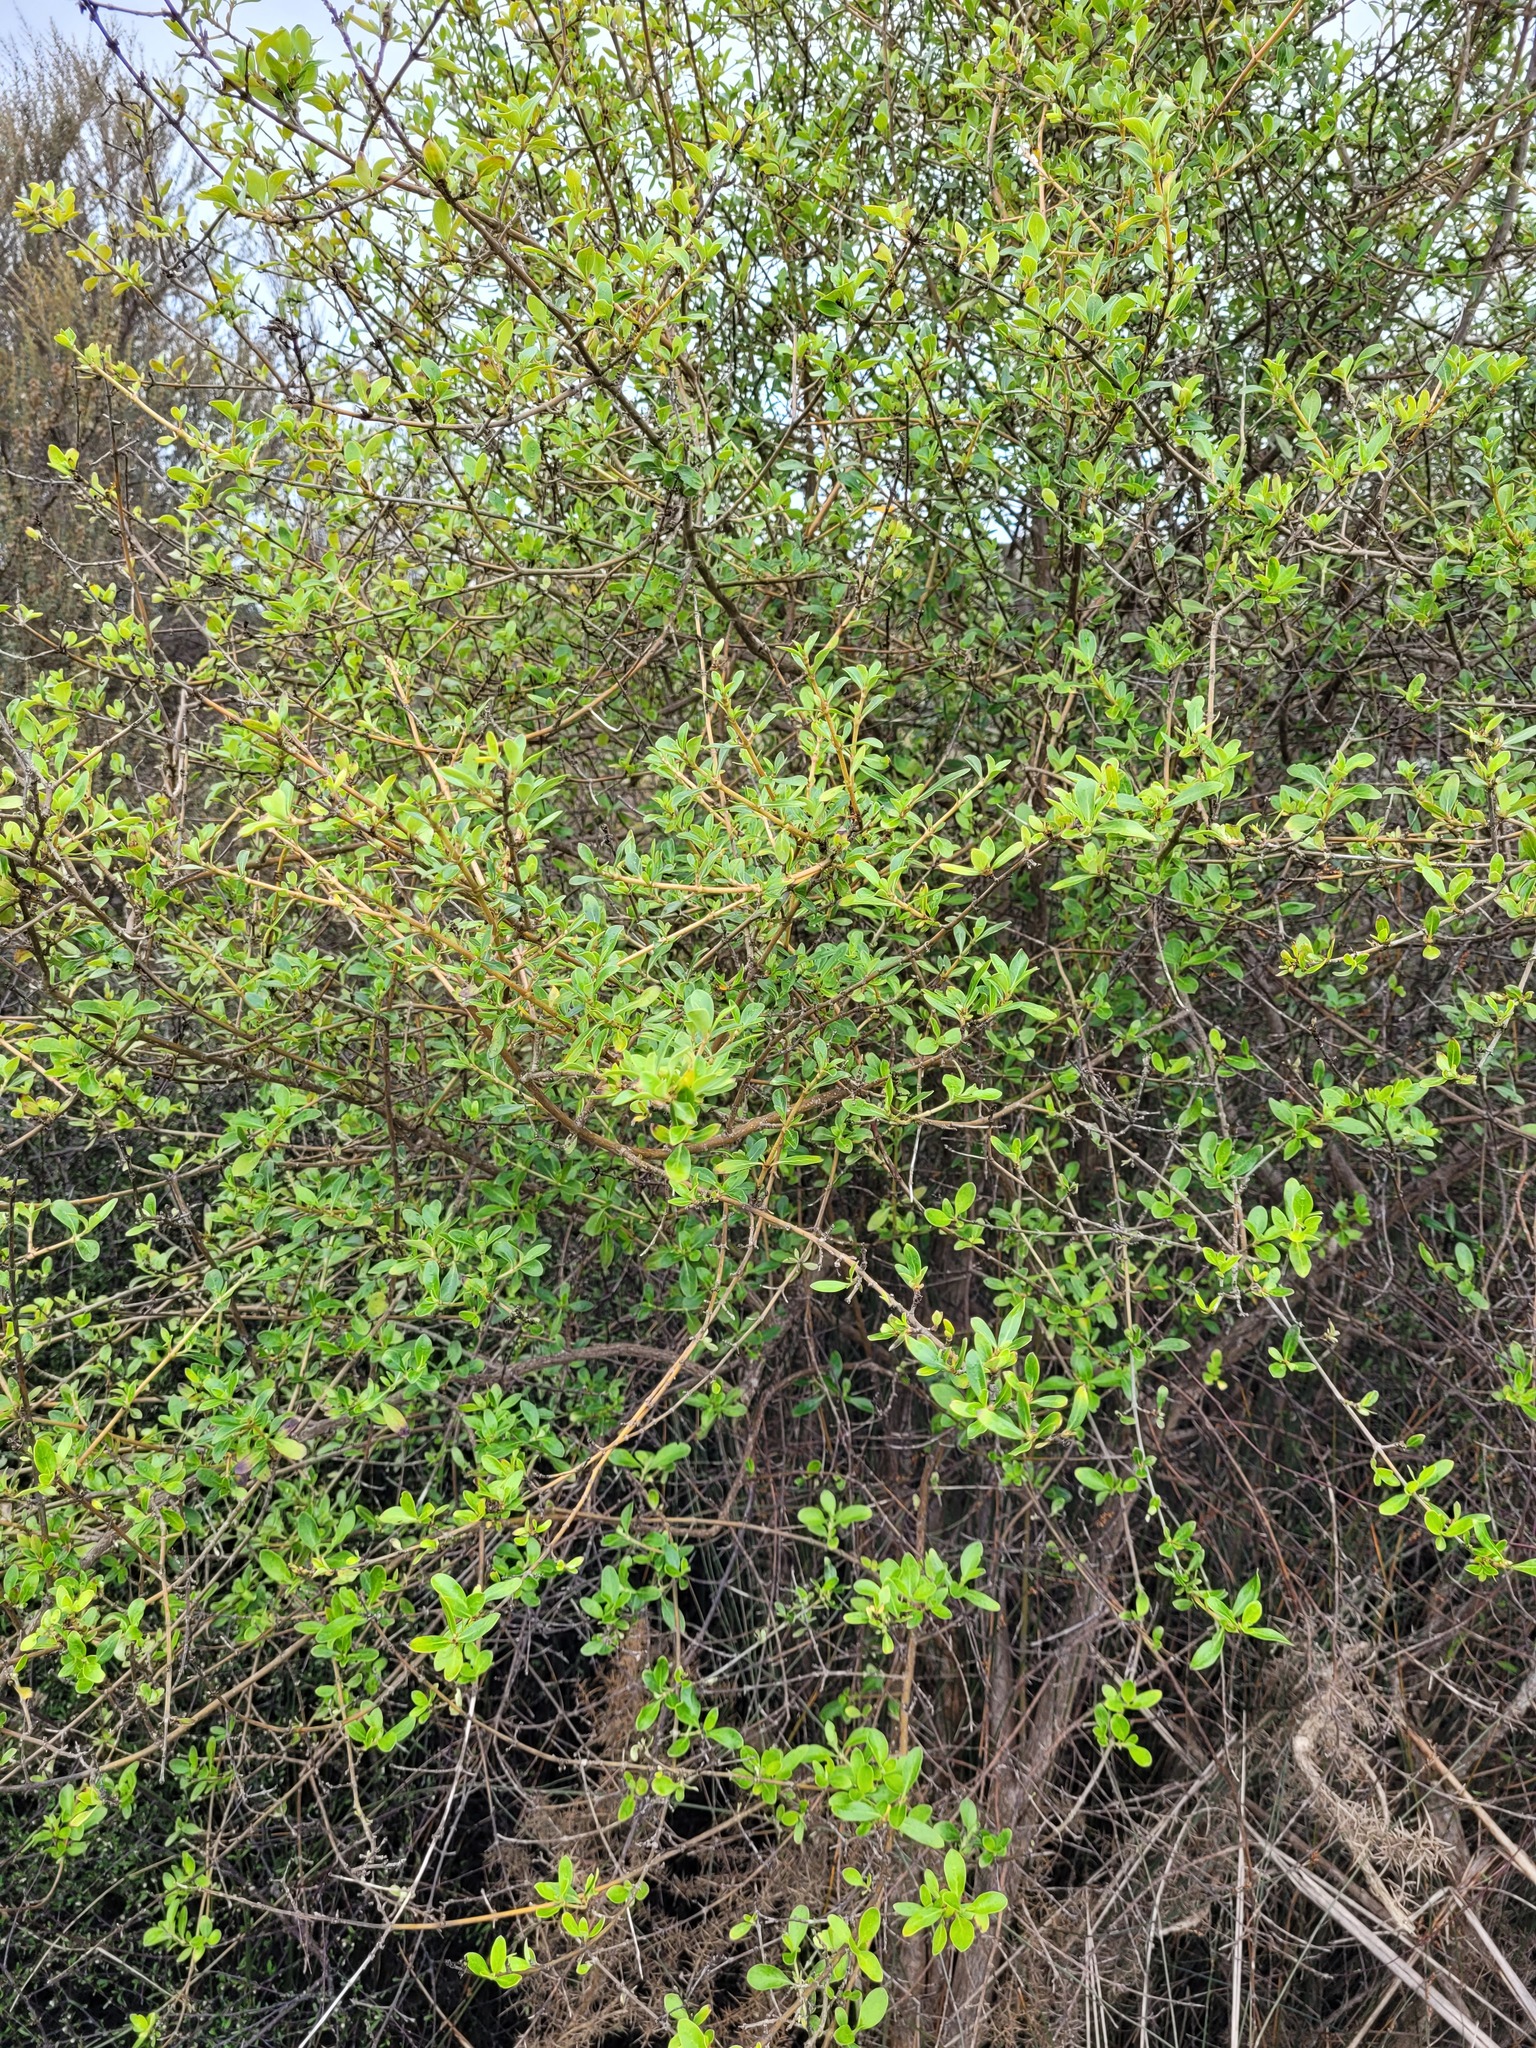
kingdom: Plantae
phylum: Tracheophyta
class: Magnoliopsida
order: Gentianales
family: Rubiaceae
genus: Coprosma
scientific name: Coprosma foetidissima
